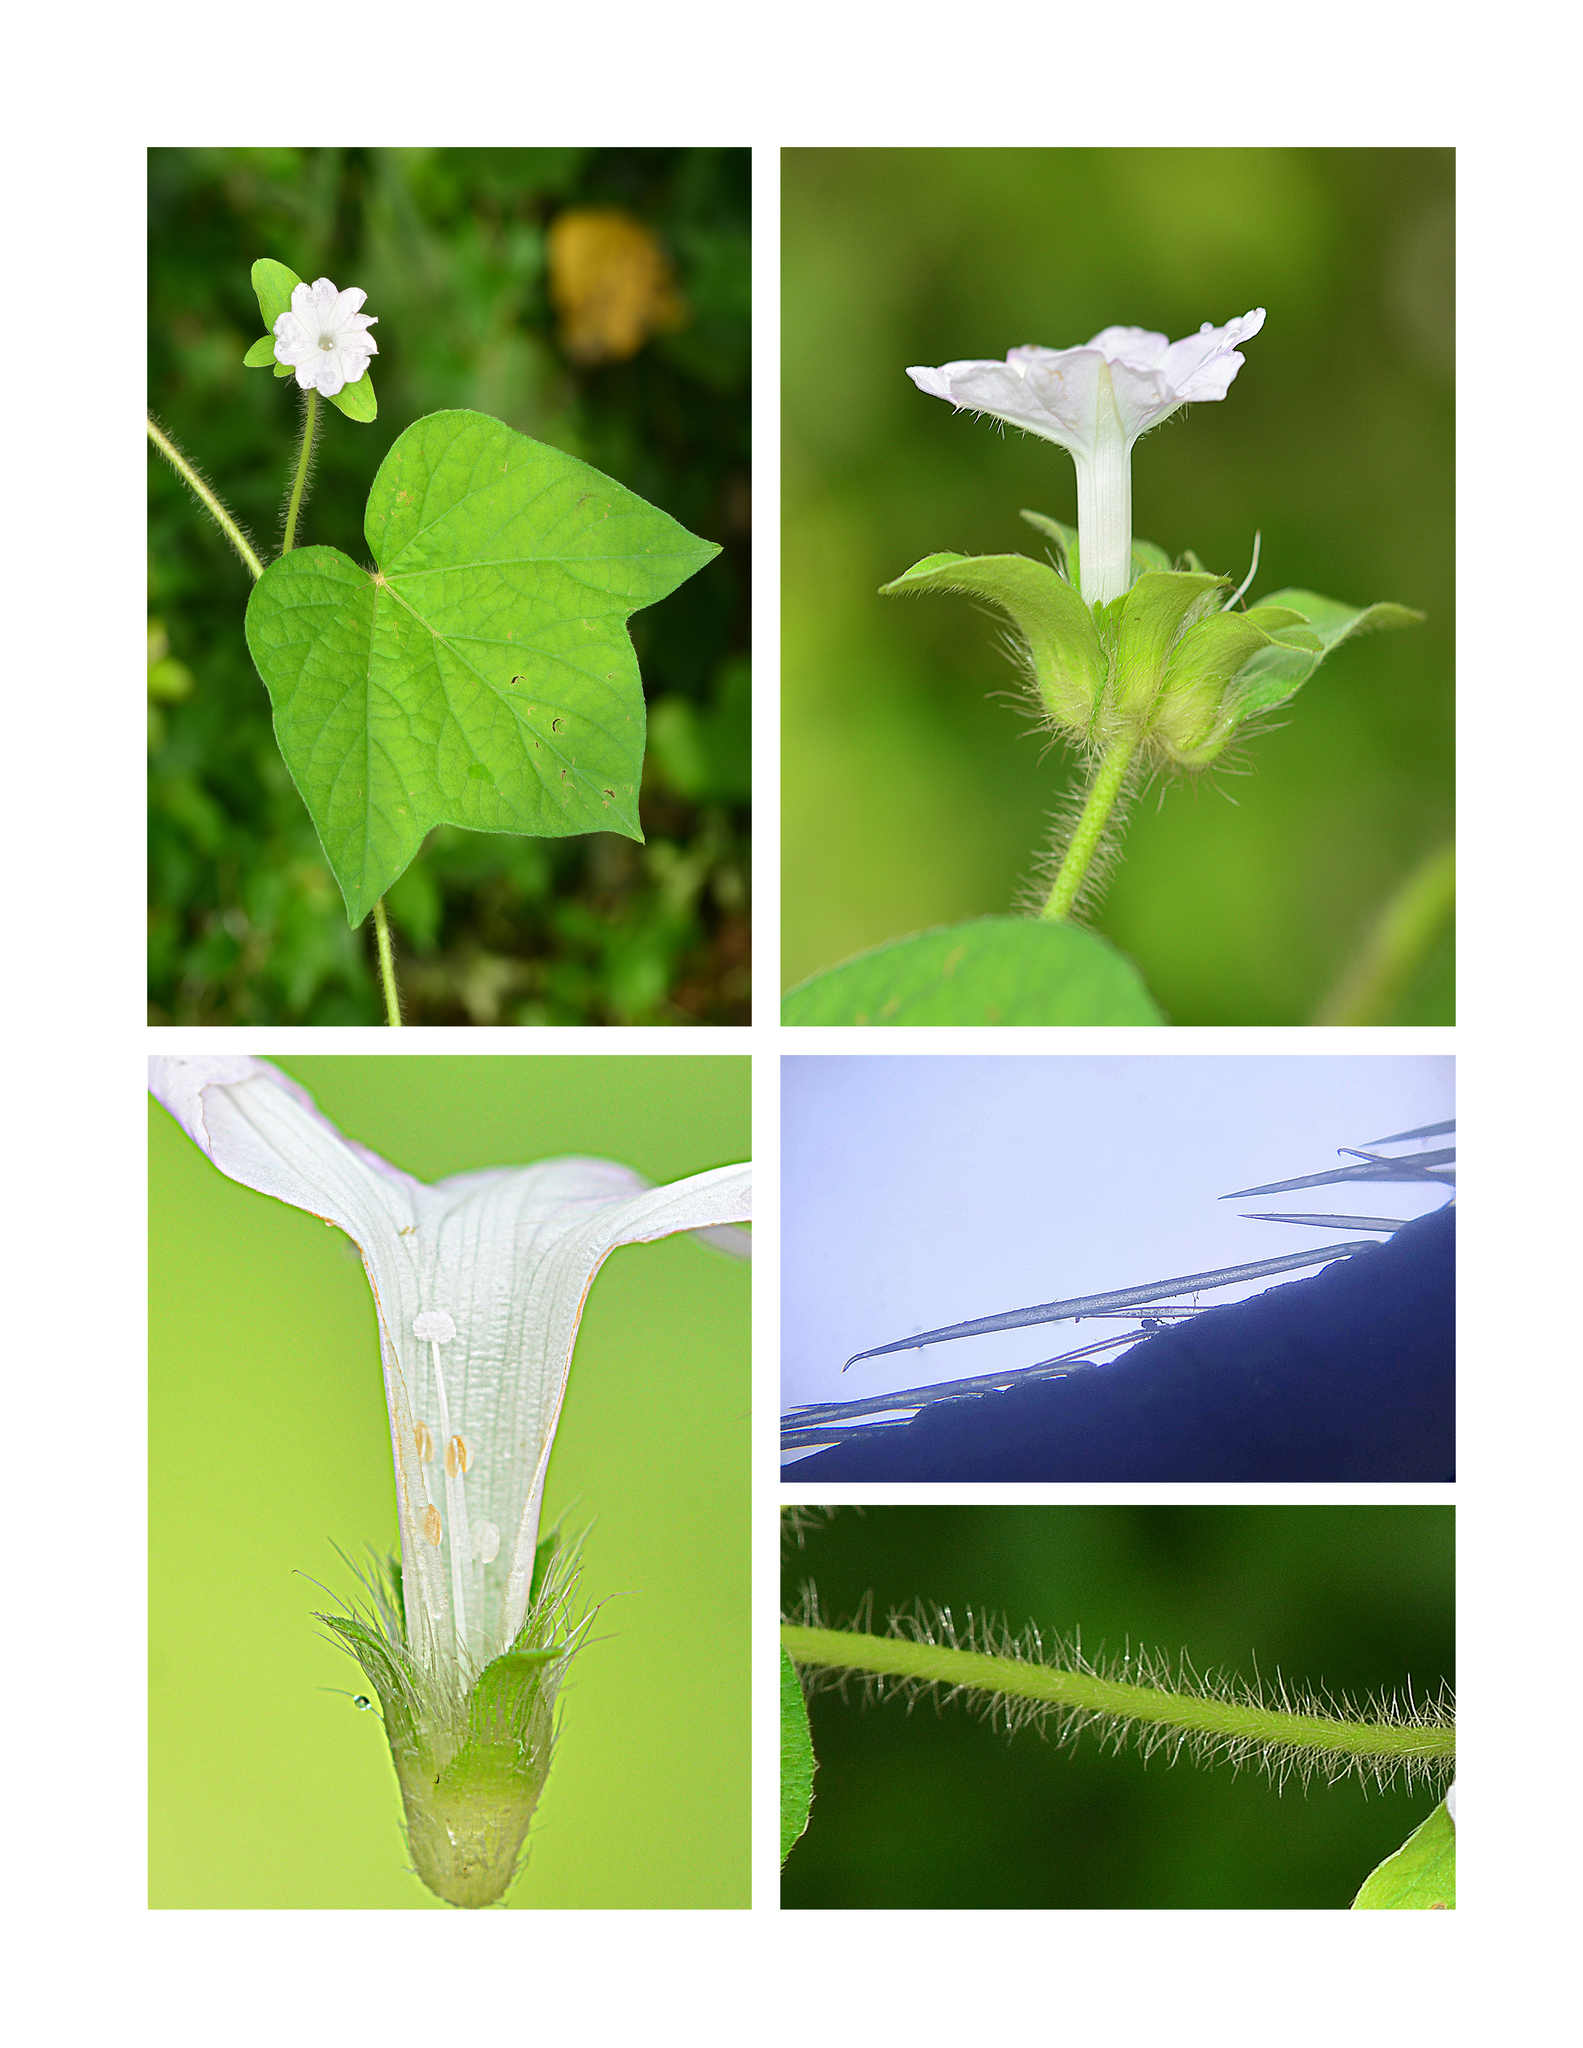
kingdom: Plantae
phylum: Tracheophyta
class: Magnoliopsida
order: Solanales
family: Convolvulaceae
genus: Ipomoea
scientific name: Ipomoea pes-tigridis
